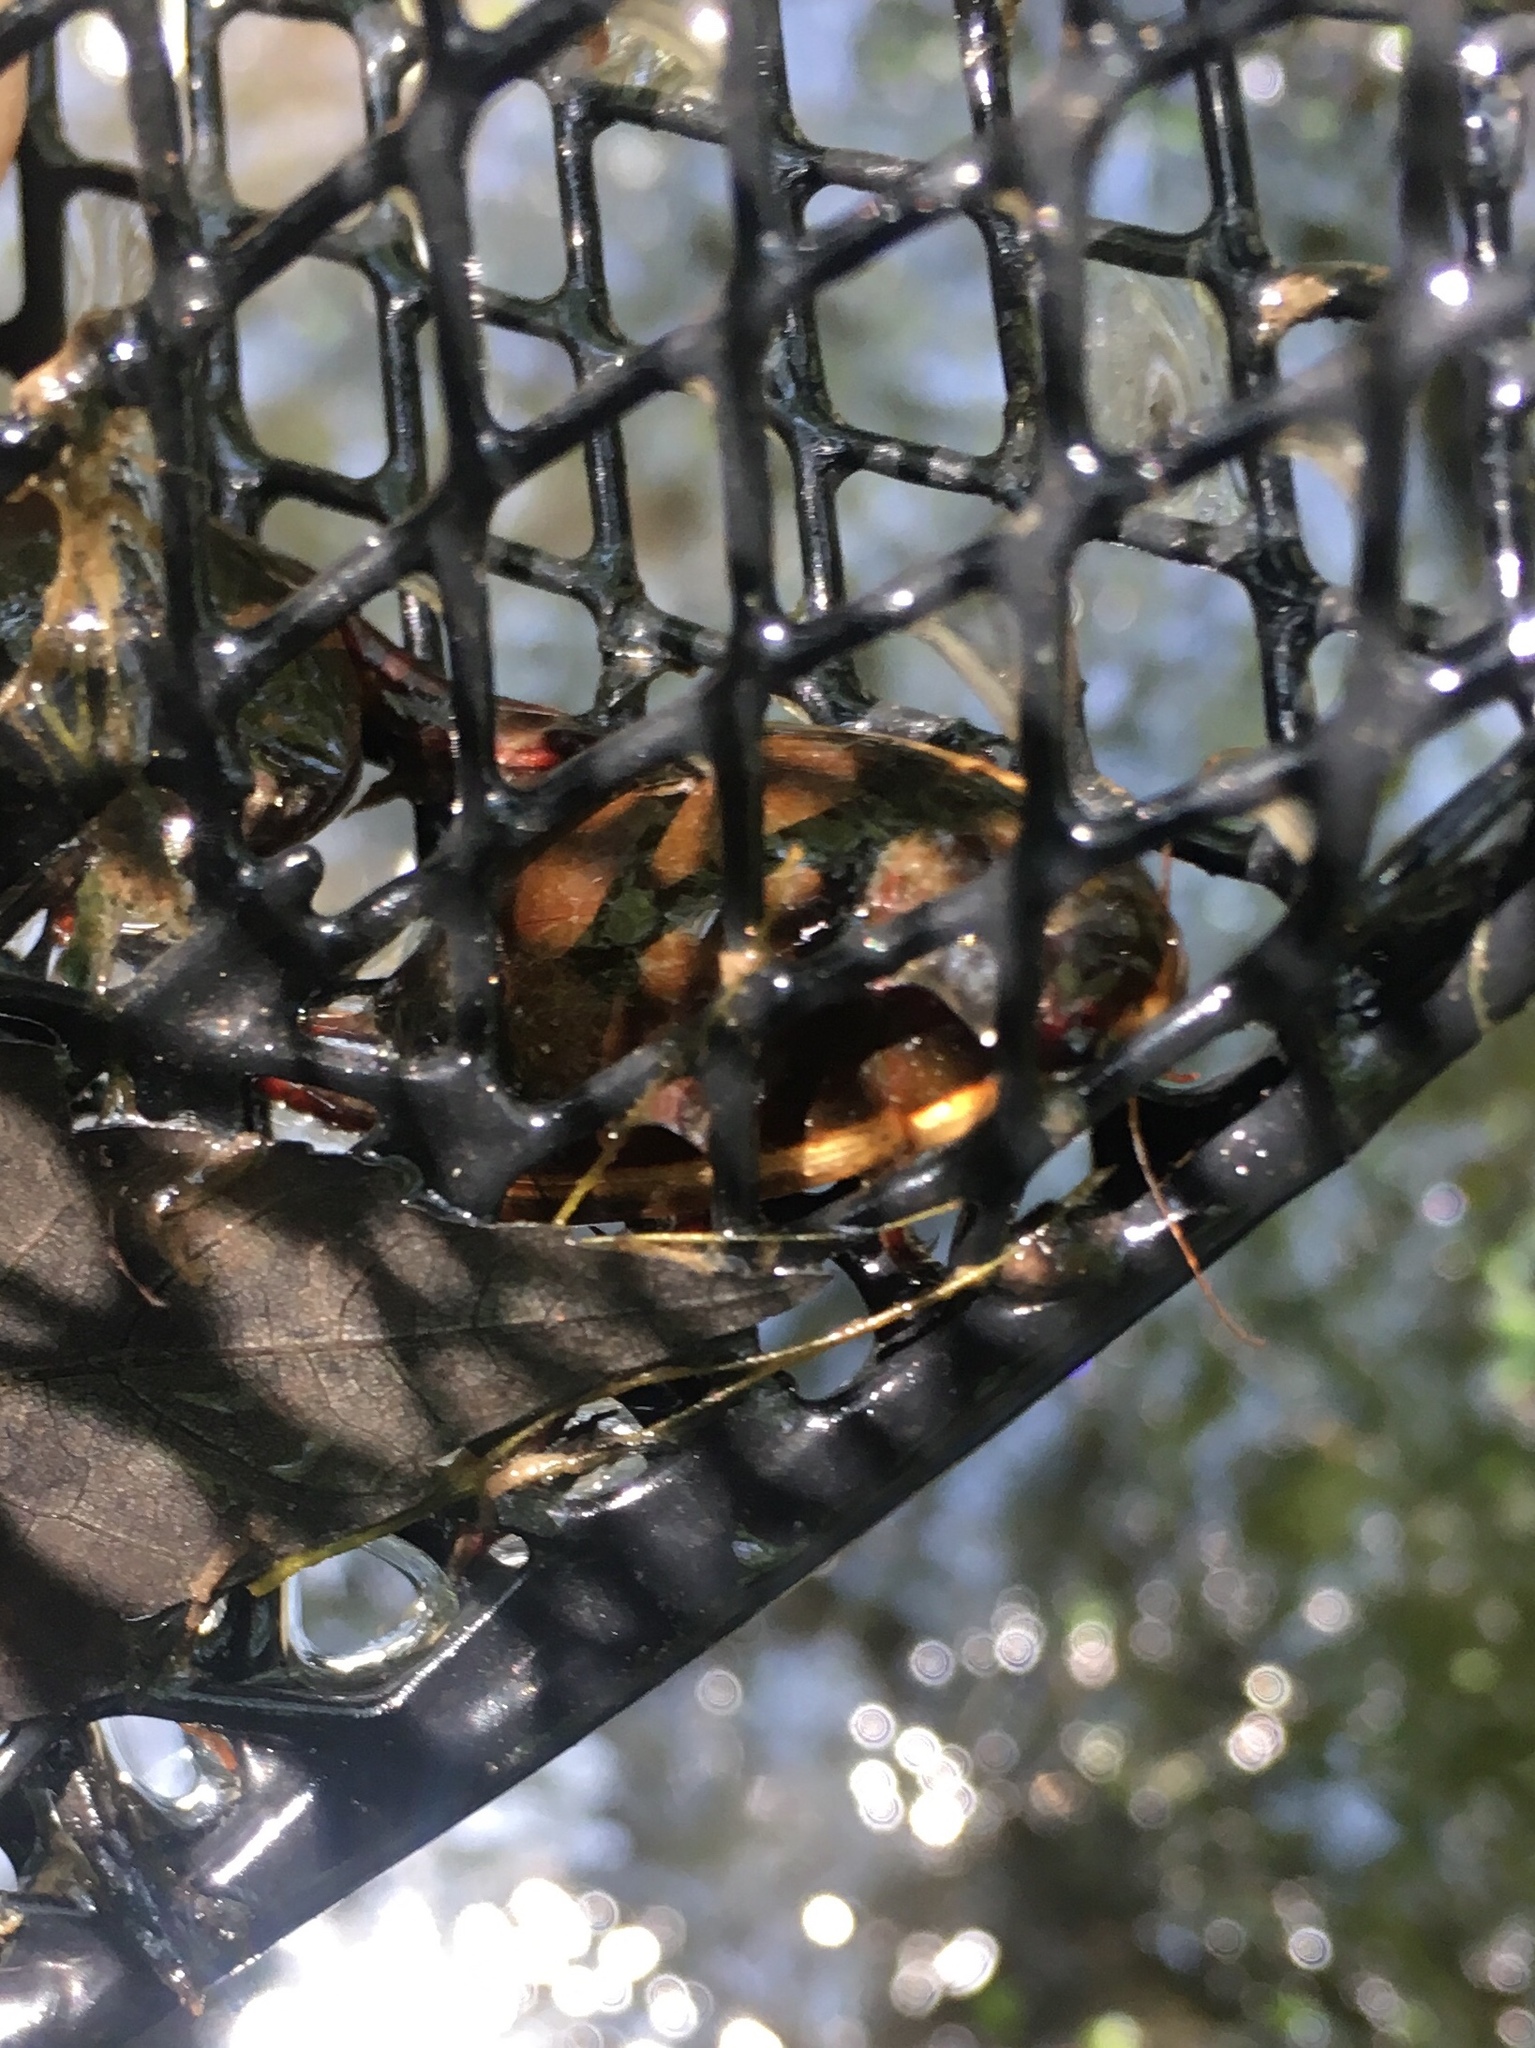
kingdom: Animalia
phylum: Arthropoda
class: Insecta
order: Coleoptera
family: Dytiscidae
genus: Cybister
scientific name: Cybister fimbriolatus
